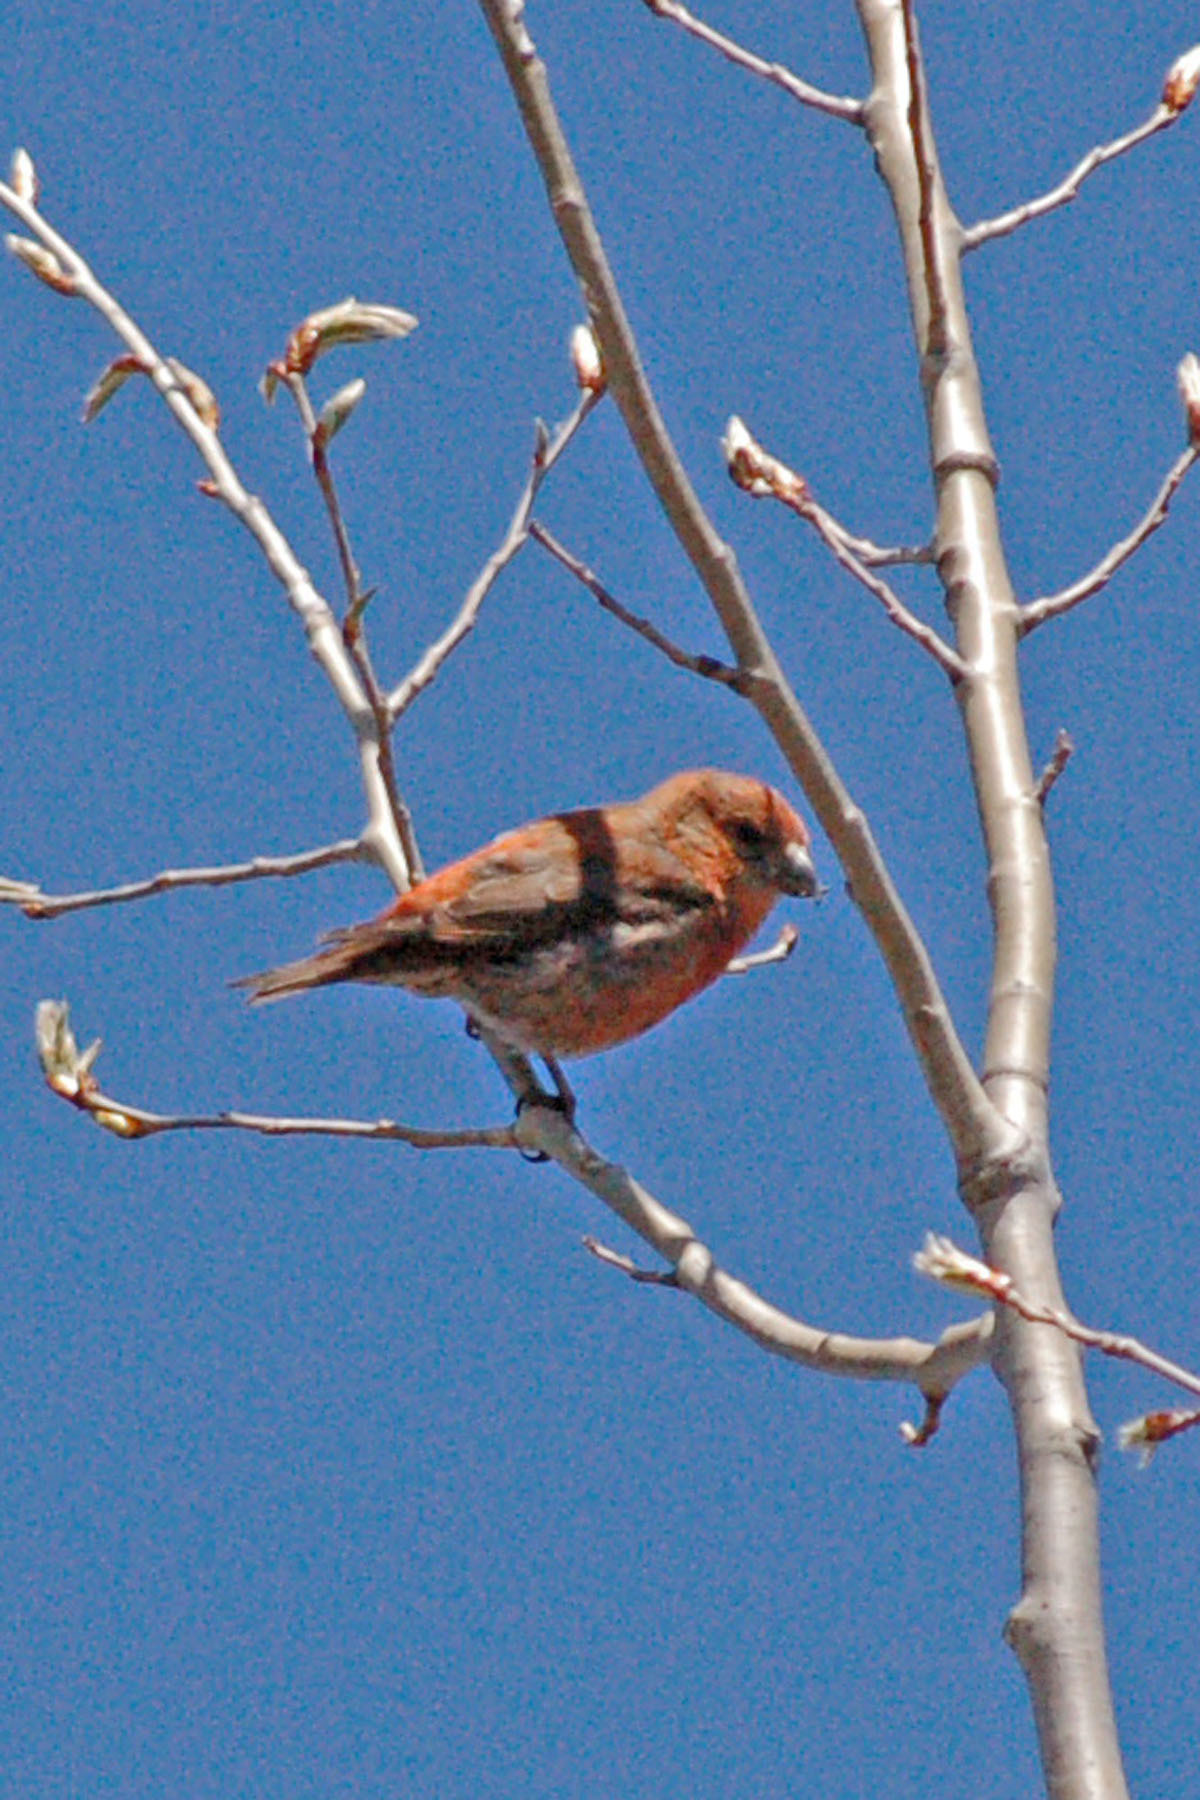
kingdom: Animalia
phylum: Chordata
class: Aves
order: Passeriformes
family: Fringillidae
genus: Loxia
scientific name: Loxia curvirostra
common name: Red crossbill
